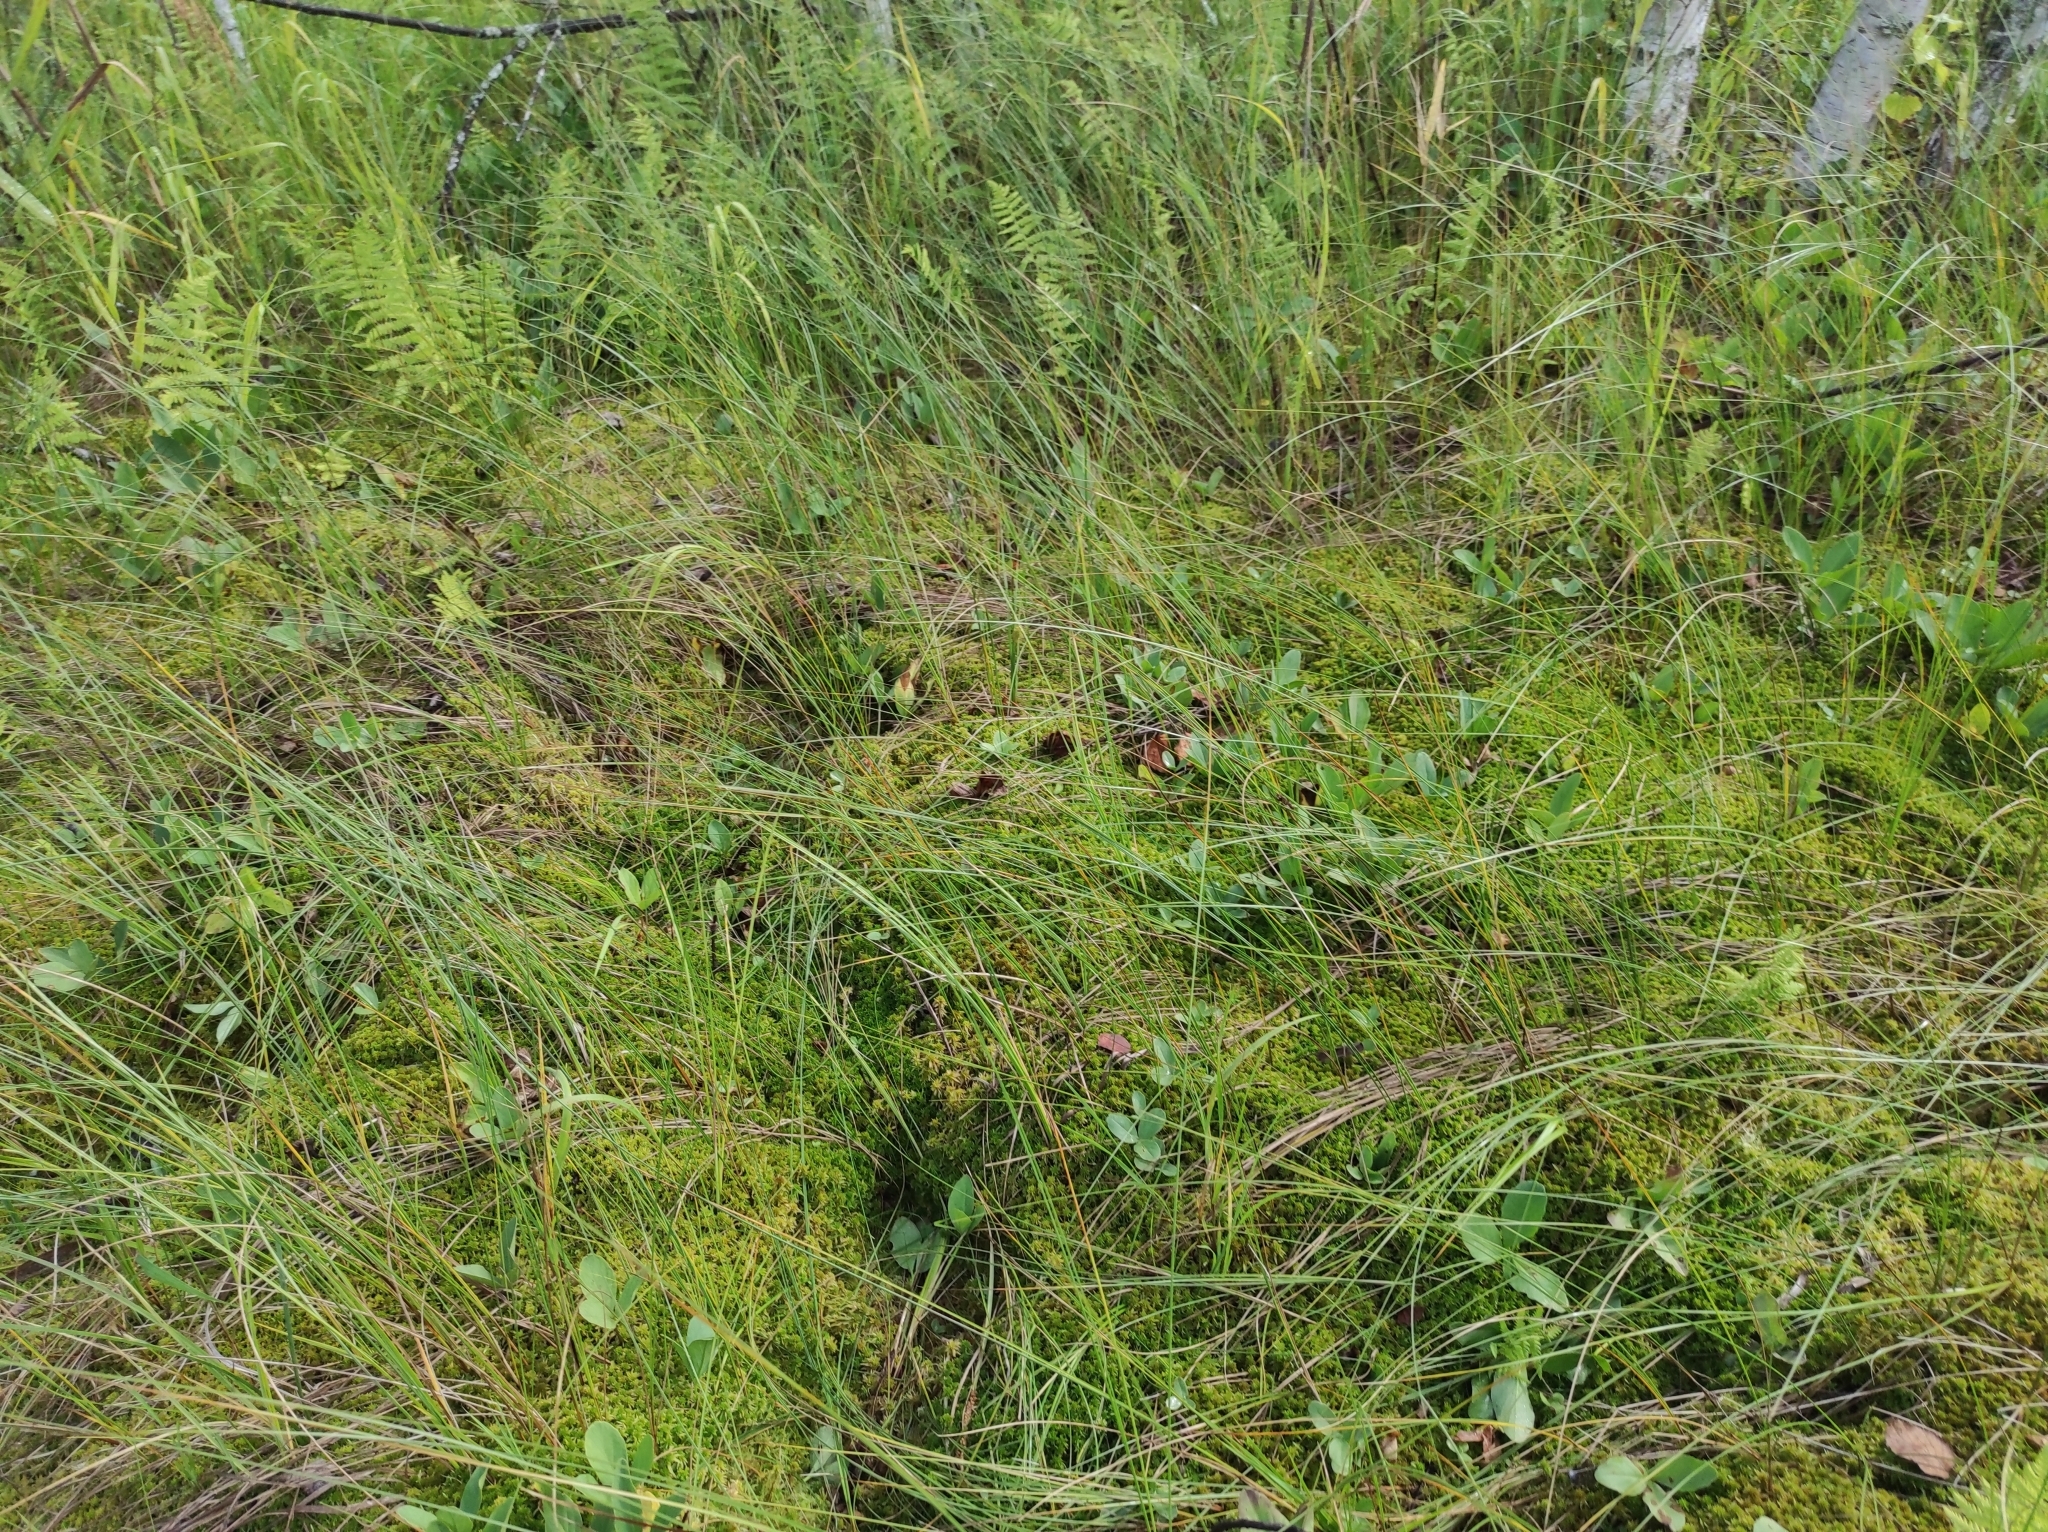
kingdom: Plantae
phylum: Tracheophyta
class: Magnoliopsida
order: Asterales
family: Menyanthaceae
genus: Menyanthes
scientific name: Menyanthes trifoliata
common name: Bogbean
